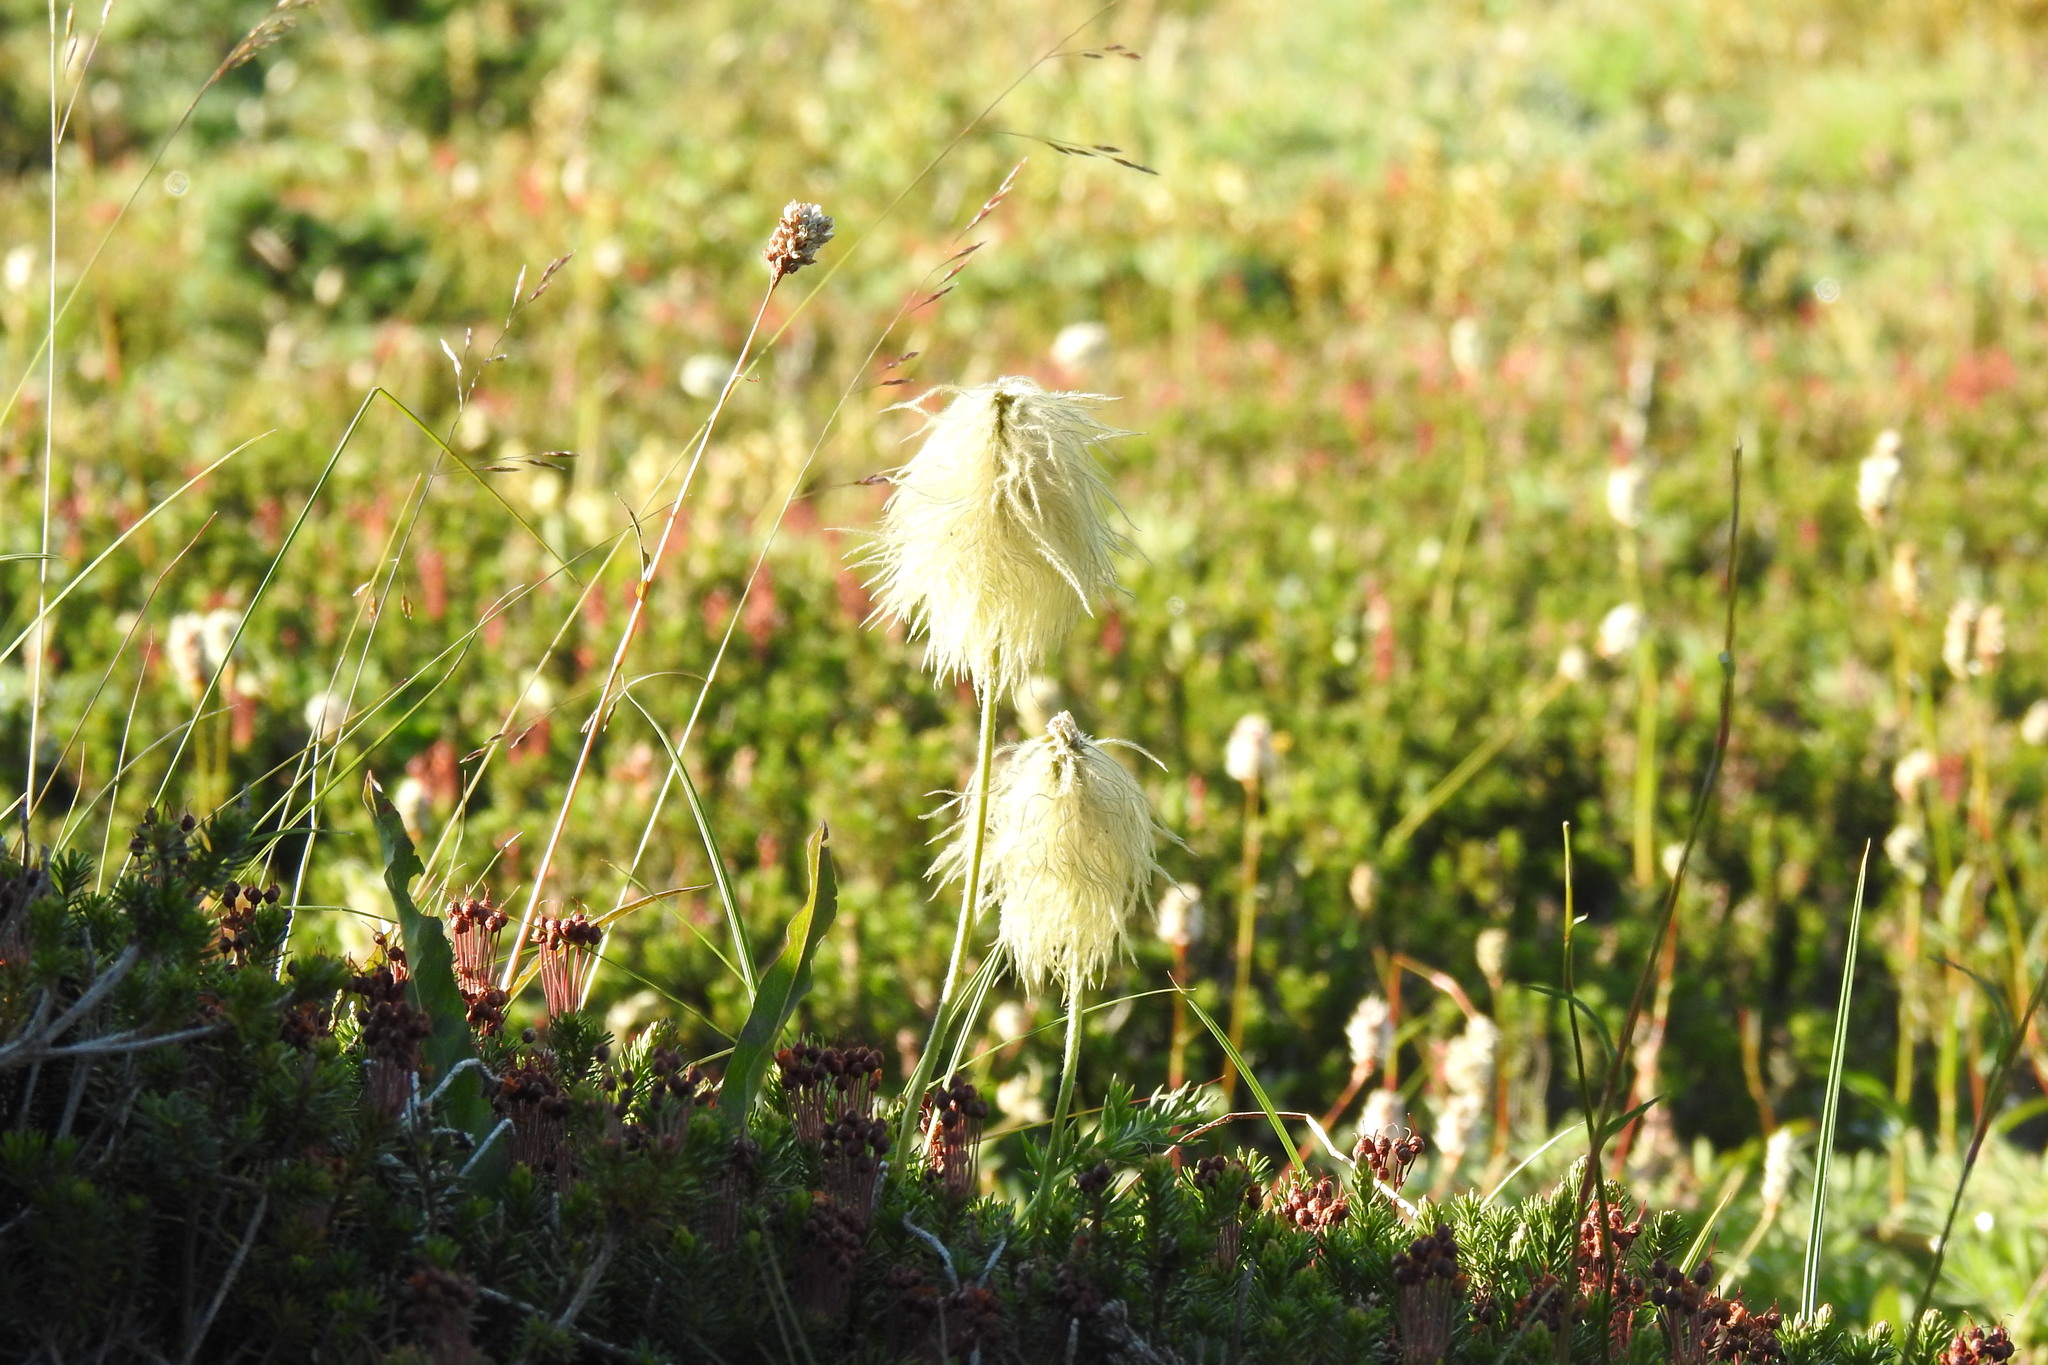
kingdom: Plantae
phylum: Tracheophyta
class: Magnoliopsida
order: Ranunculales
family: Ranunculaceae
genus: Pulsatilla
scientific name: Pulsatilla occidentalis
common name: Mountain pasqueflower
